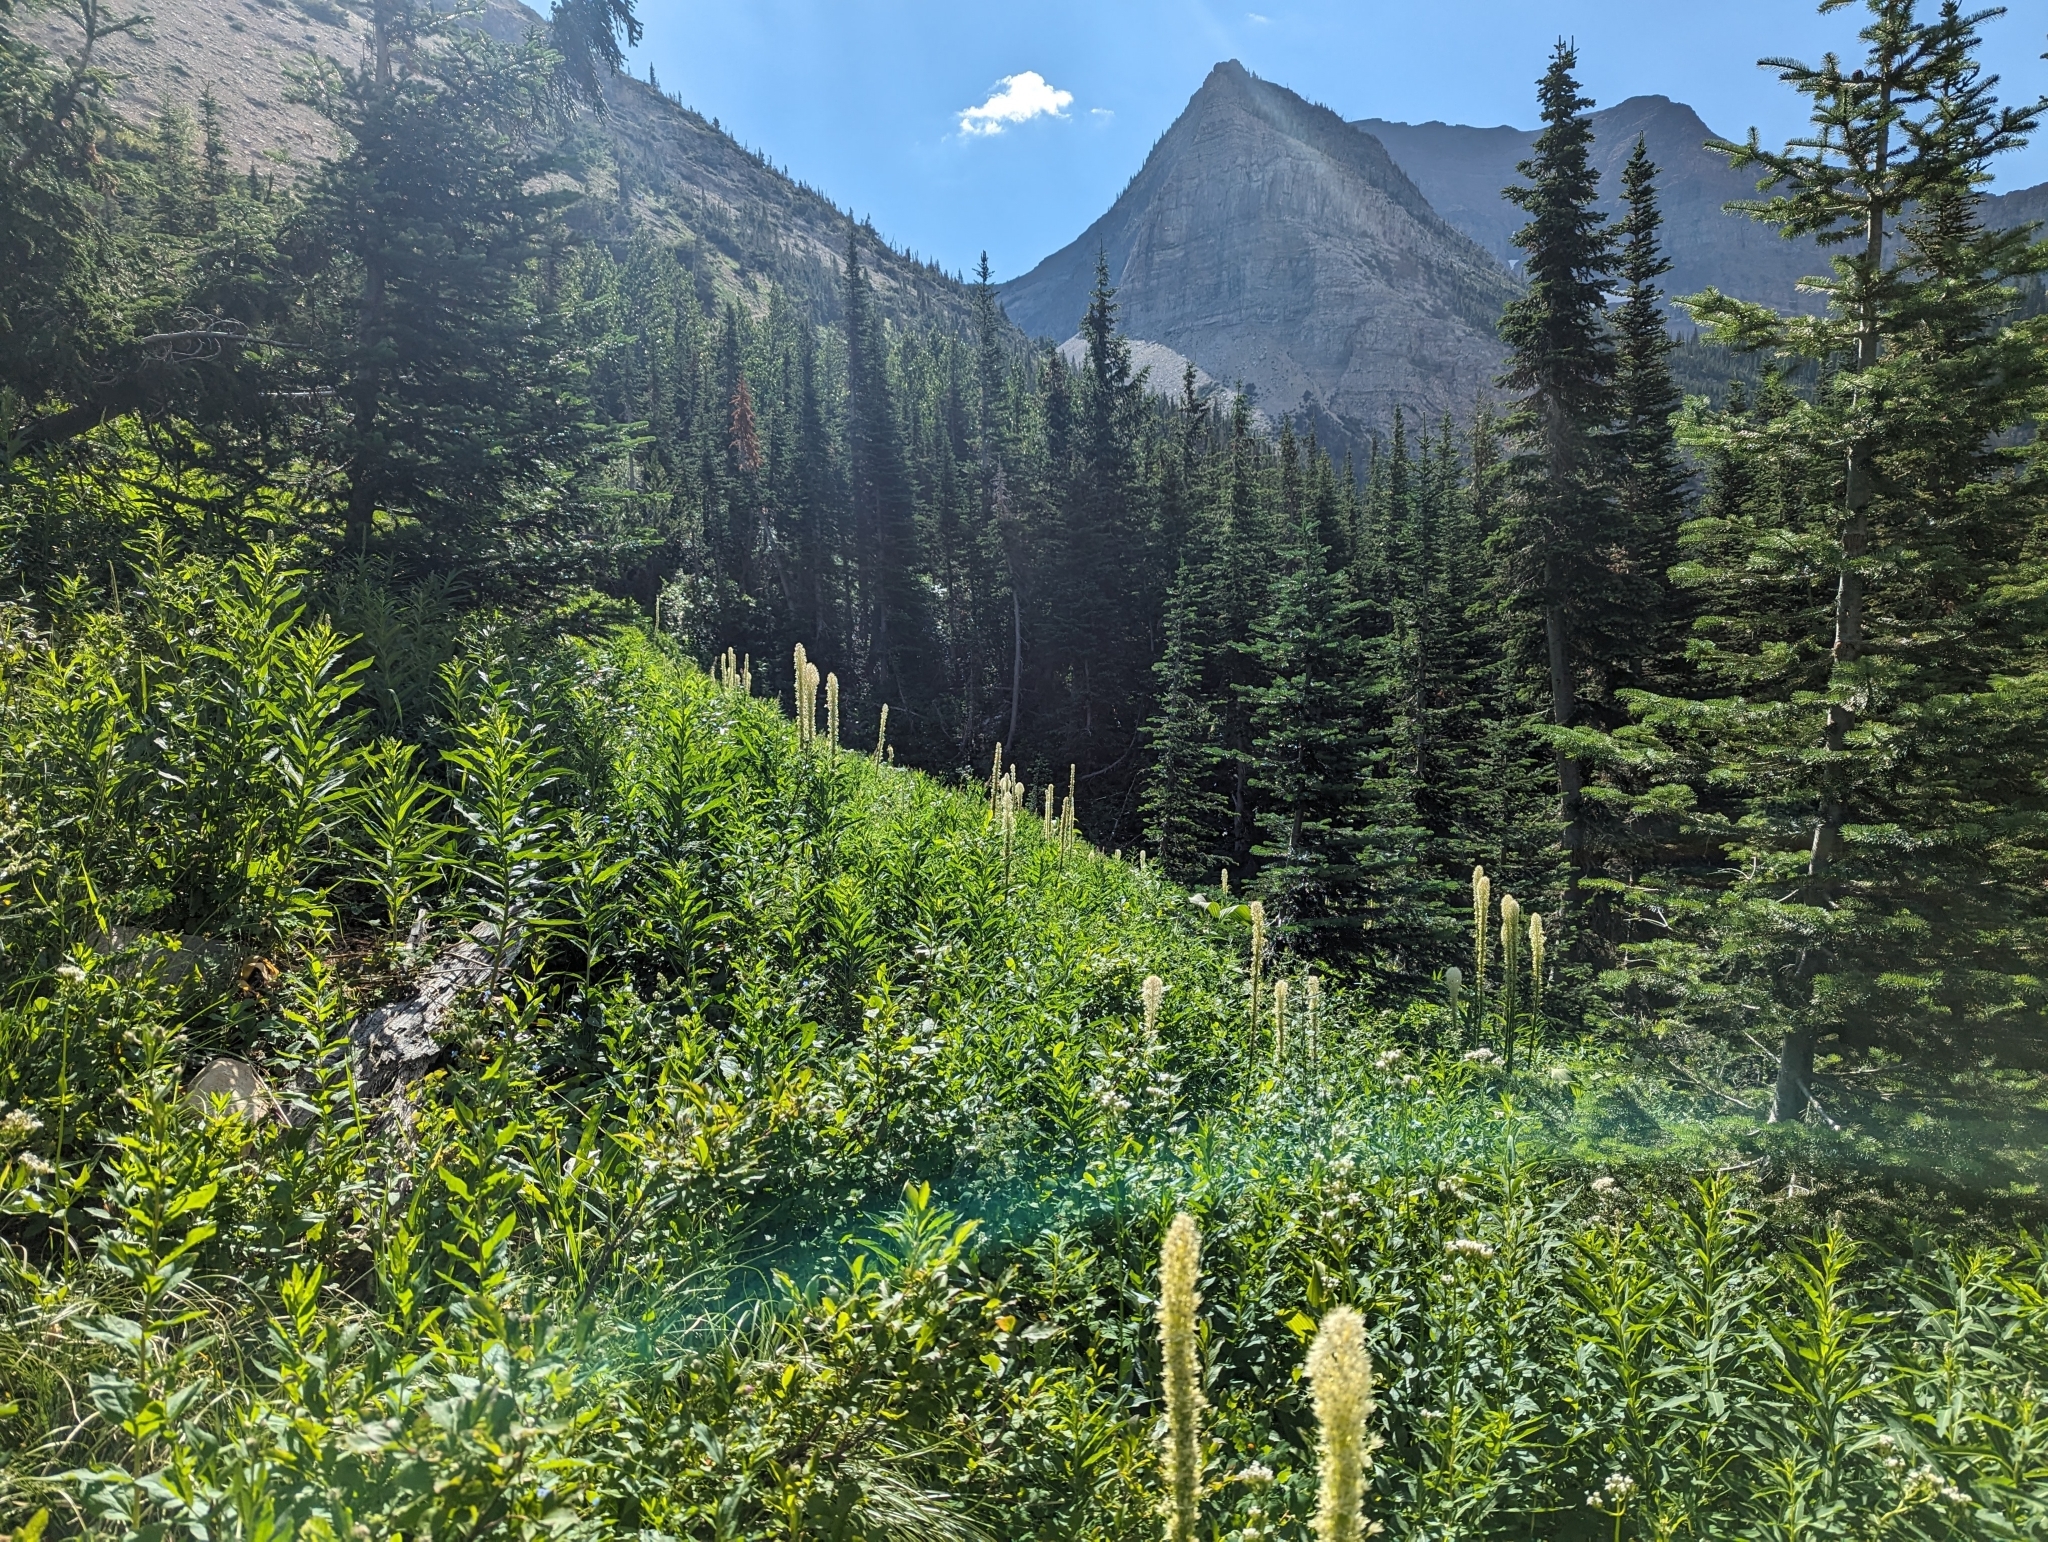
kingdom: Plantae
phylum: Tracheophyta
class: Liliopsida
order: Liliales
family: Melanthiaceae
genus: Xerophyllum
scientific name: Xerophyllum tenax
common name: Bear-grass
